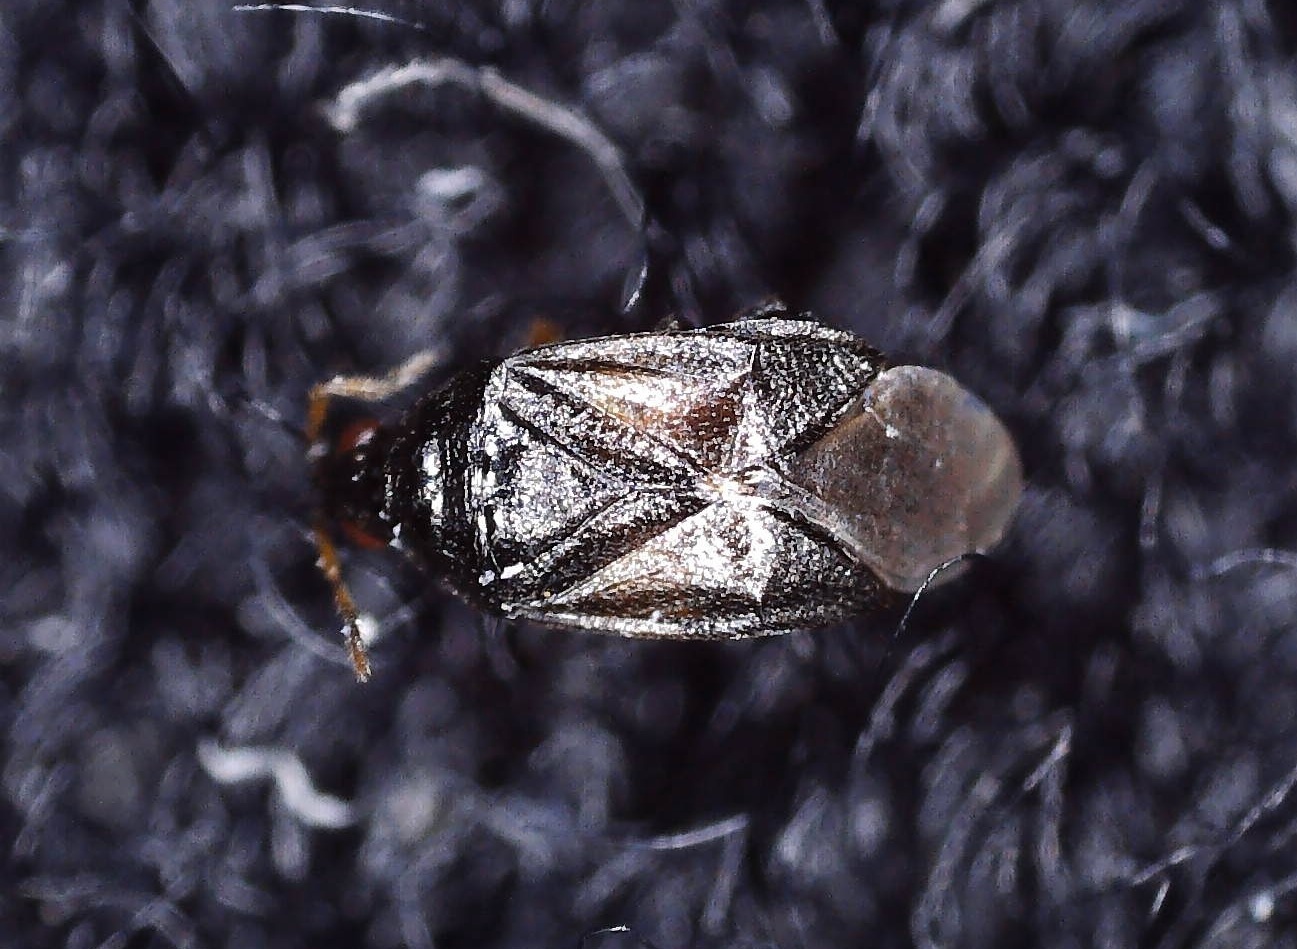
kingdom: Animalia
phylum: Arthropoda
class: Insecta
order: Hemiptera
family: Anthocoridae
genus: Orius
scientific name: Orius niger
